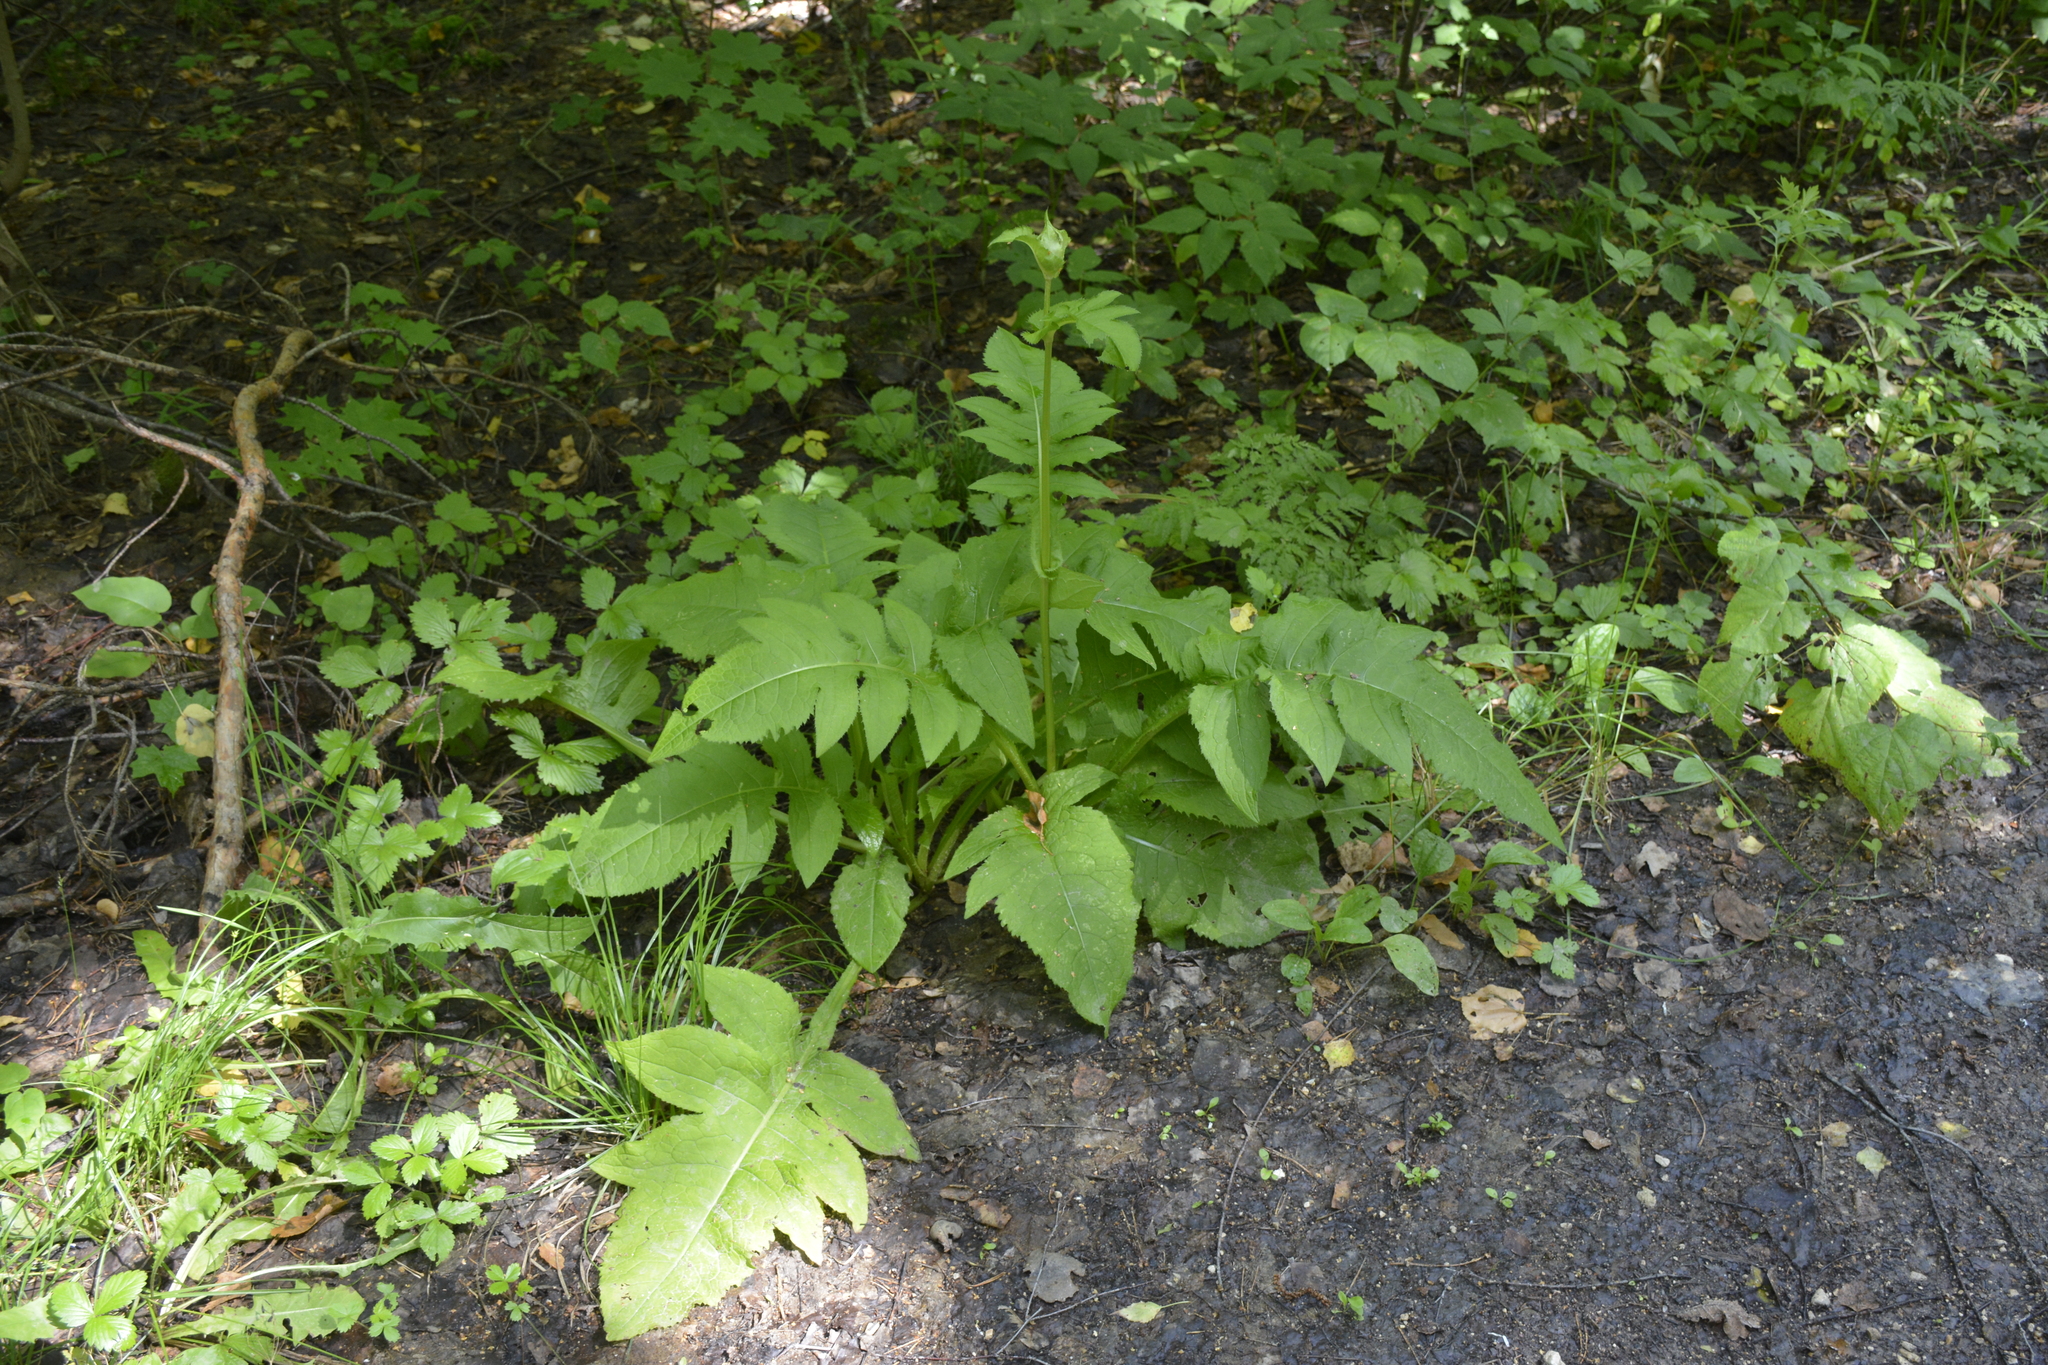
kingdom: Plantae
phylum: Tracheophyta
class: Magnoliopsida
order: Asterales
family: Asteraceae
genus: Cirsium
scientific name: Cirsium oleraceum
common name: Cabbage thistle
